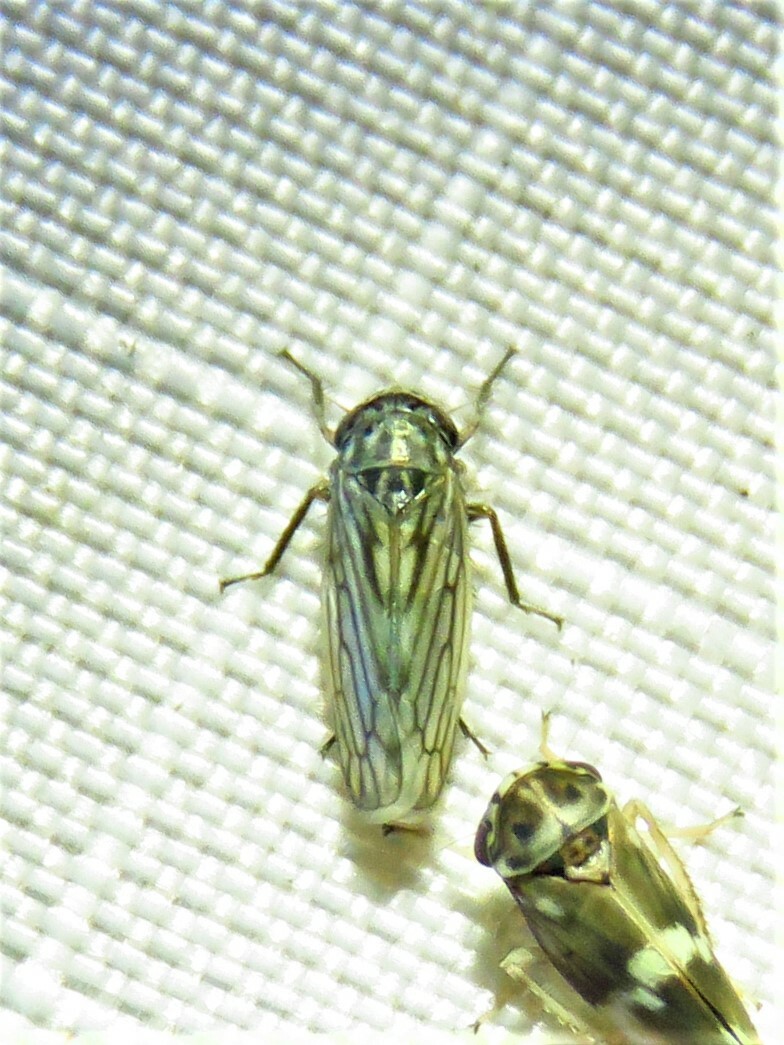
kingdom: Animalia
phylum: Arthropoda
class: Insecta
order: Hemiptera
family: Cicadellidae
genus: Exitianus
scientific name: Exitianus exitiosus
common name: Gray lawn leafhopper
